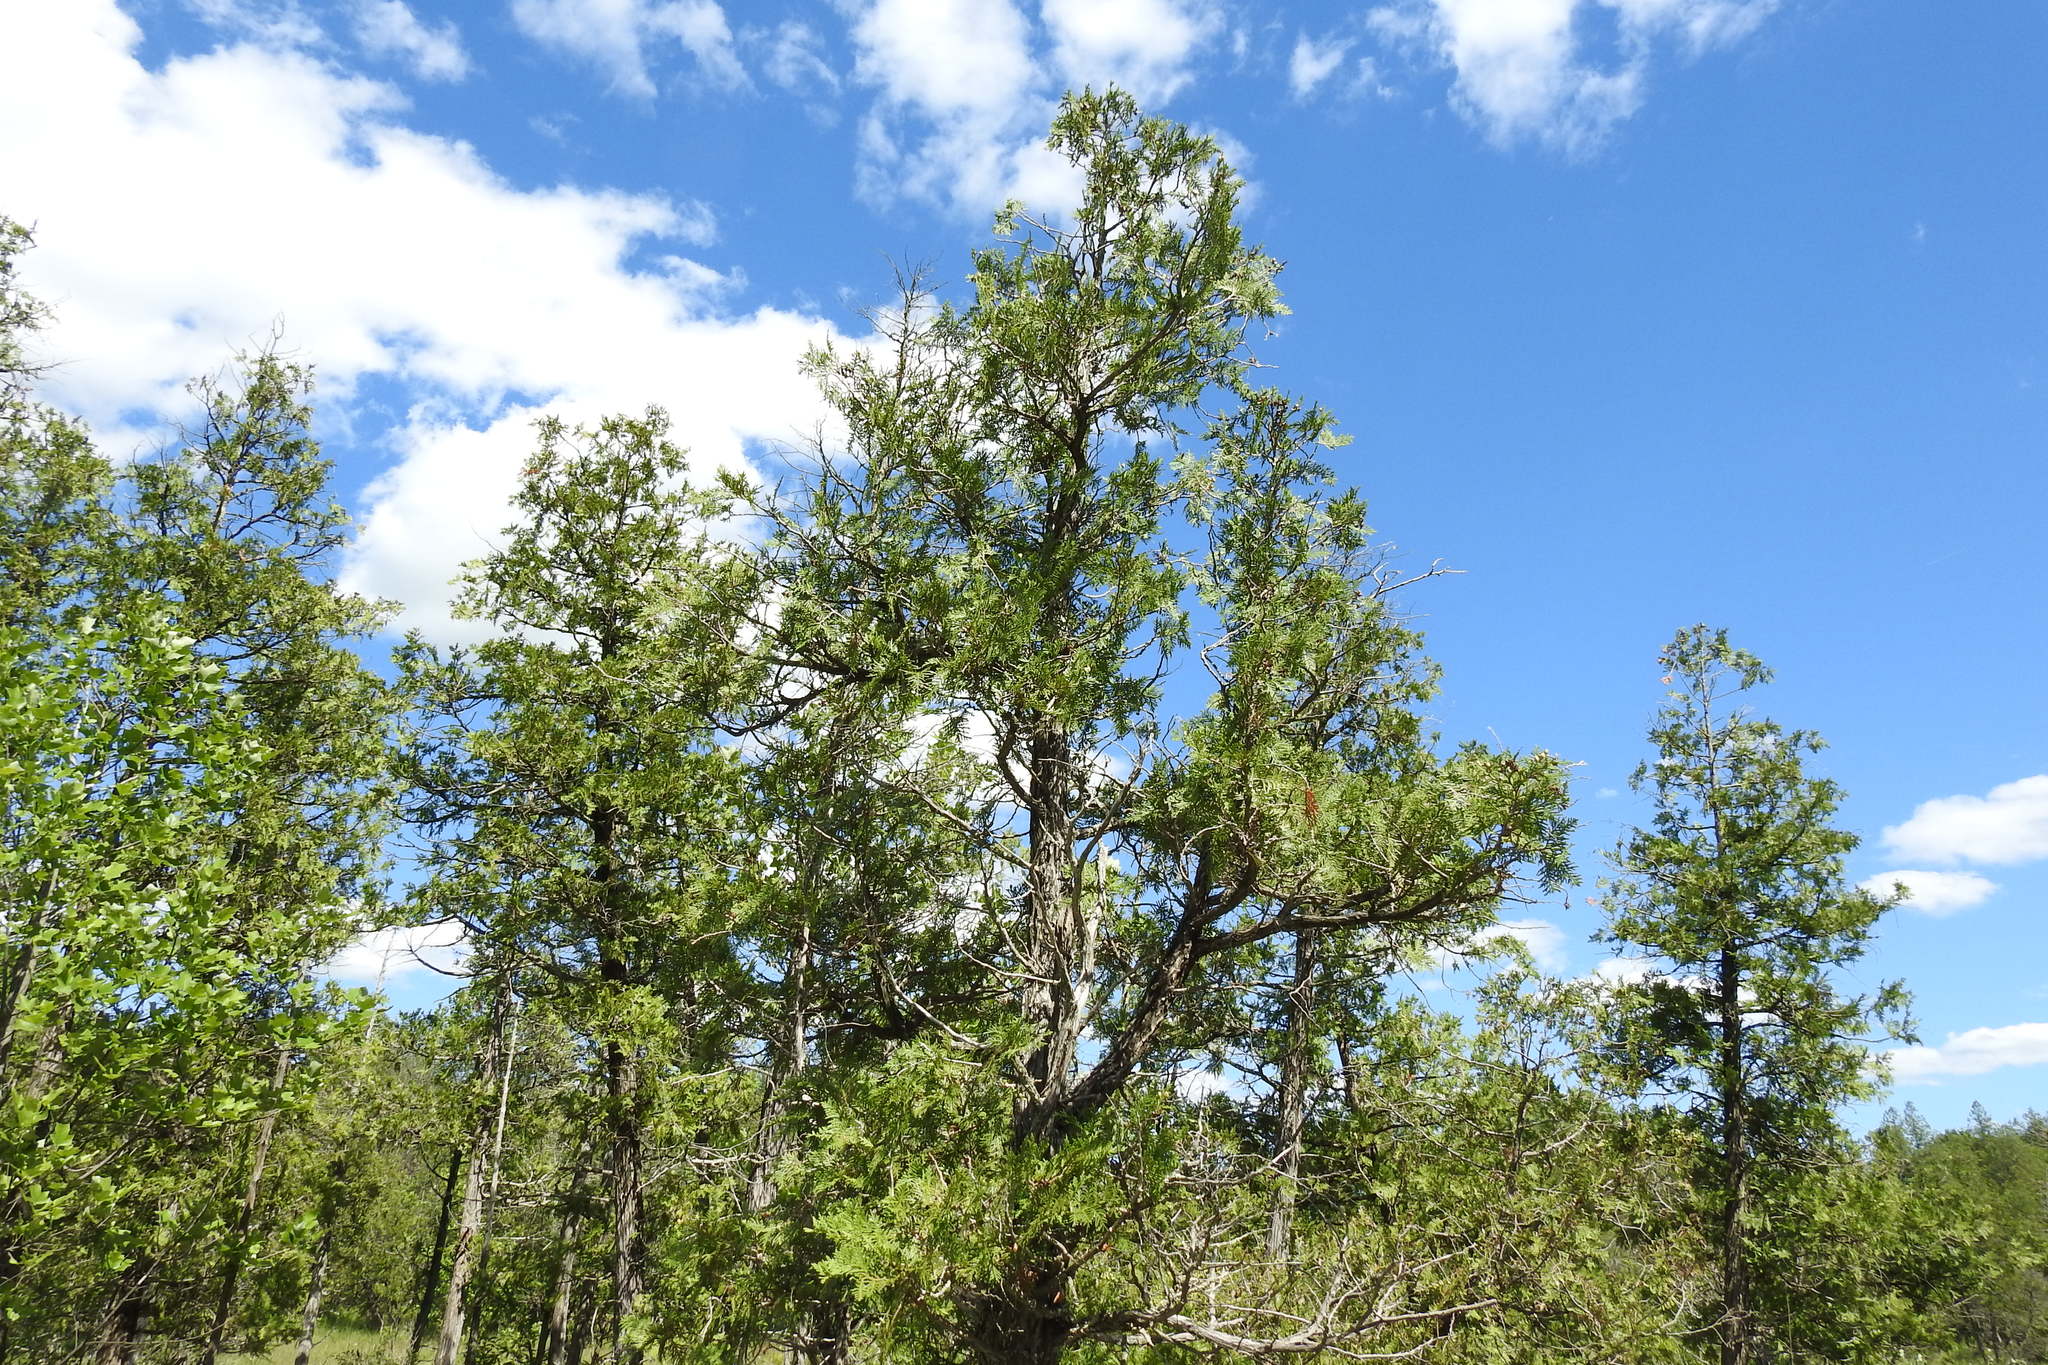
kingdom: Plantae
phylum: Tracheophyta
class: Pinopsida
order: Pinales
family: Cupressaceae
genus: Thuja
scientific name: Thuja occidentalis
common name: Northern white-cedar
